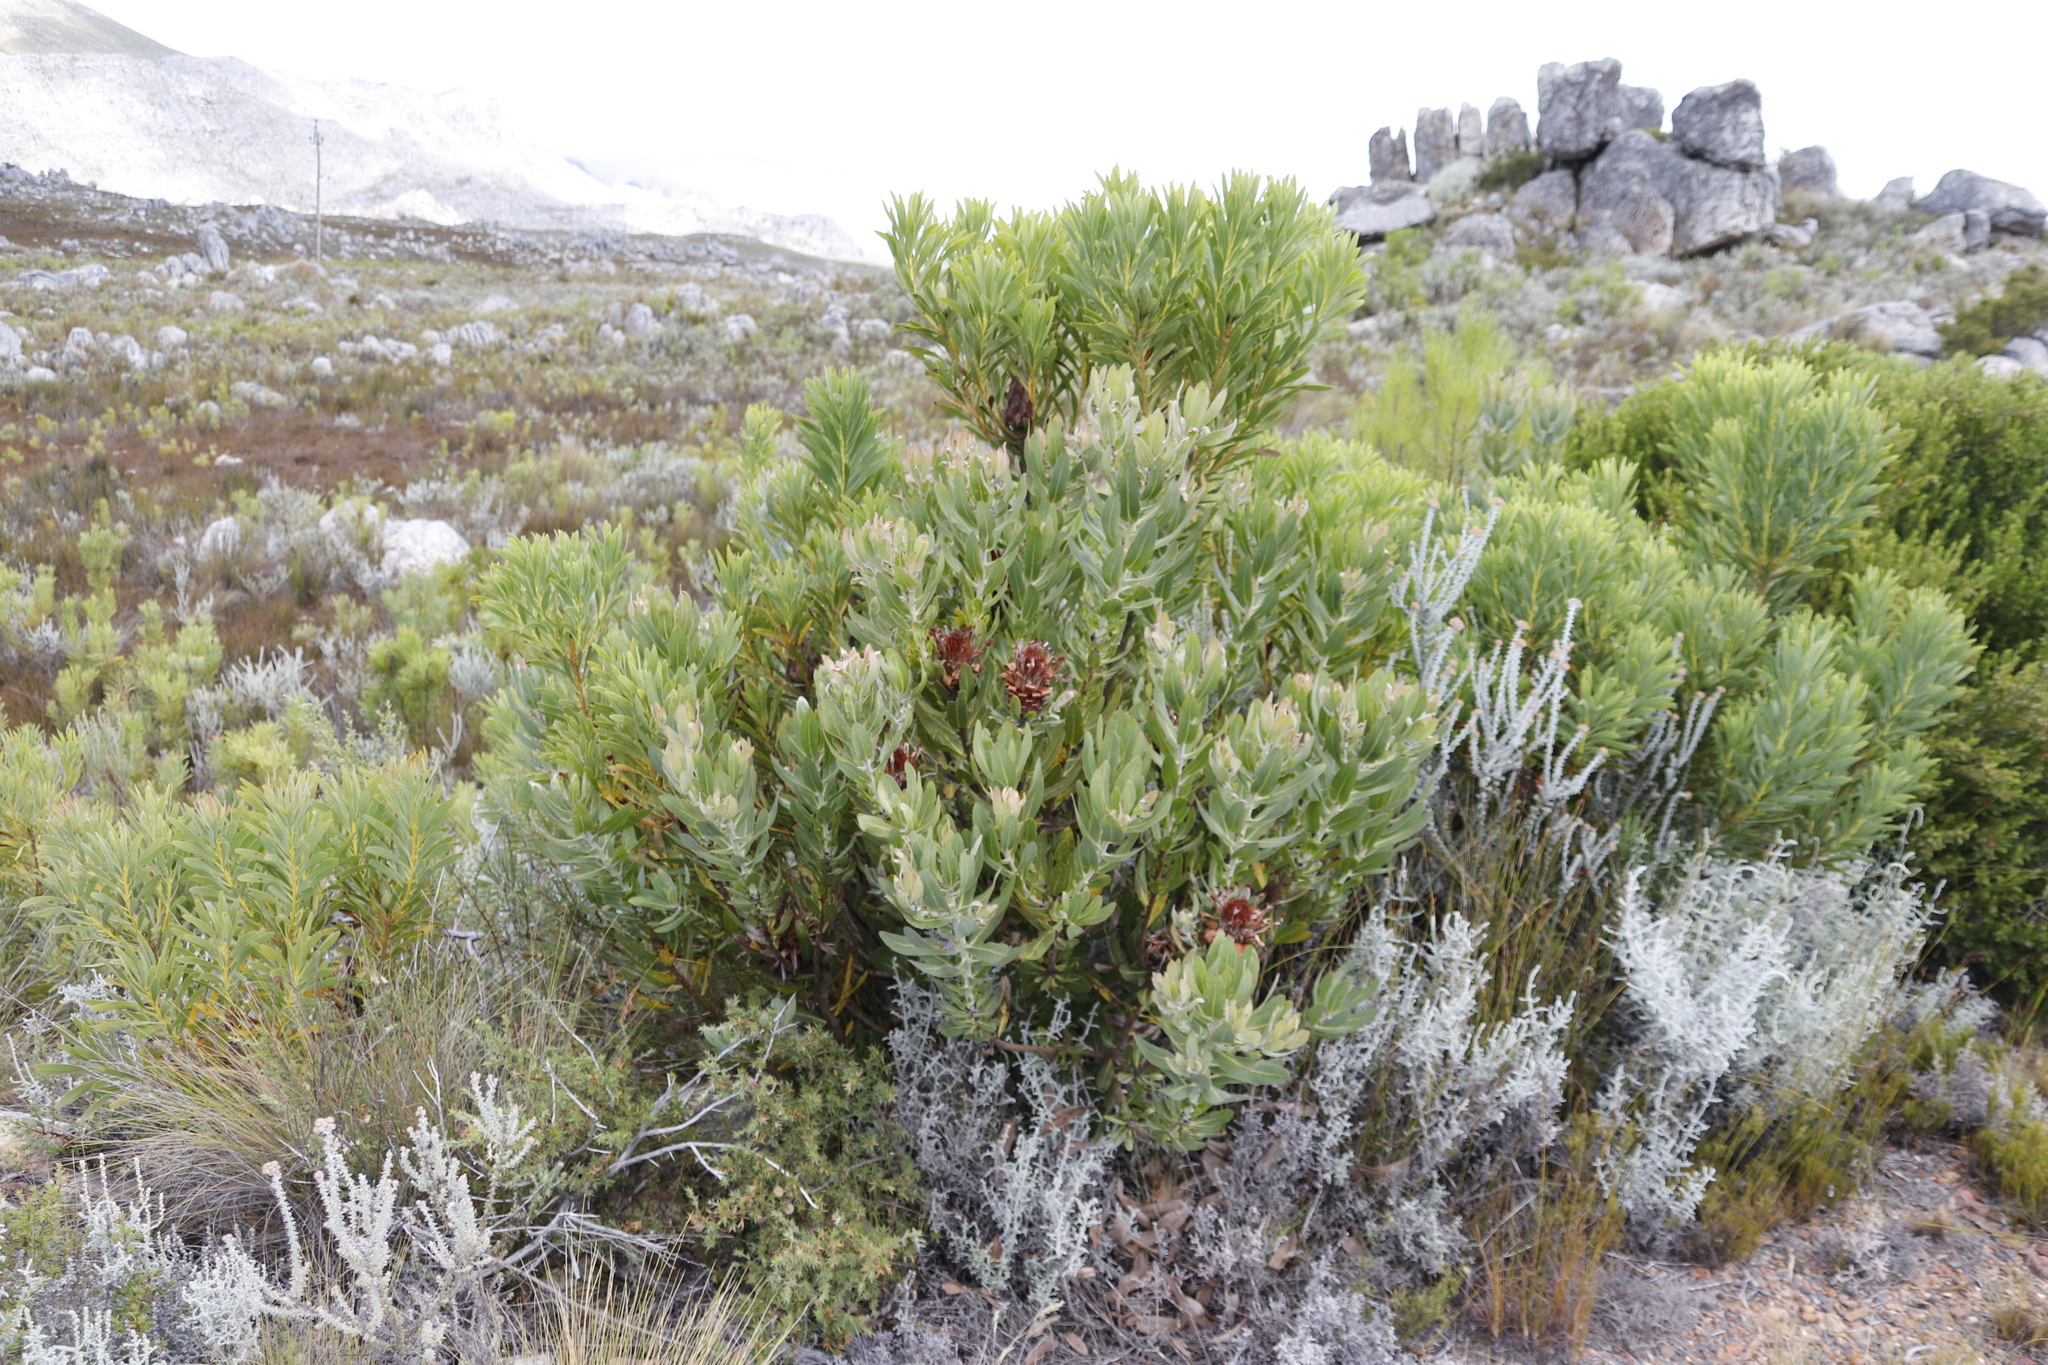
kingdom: Plantae
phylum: Tracheophyta
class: Magnoliopsida
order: Proteales
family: Proteaceae
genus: Protea
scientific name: Protea laurifolia
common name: Grey-leaf sugarbsh
